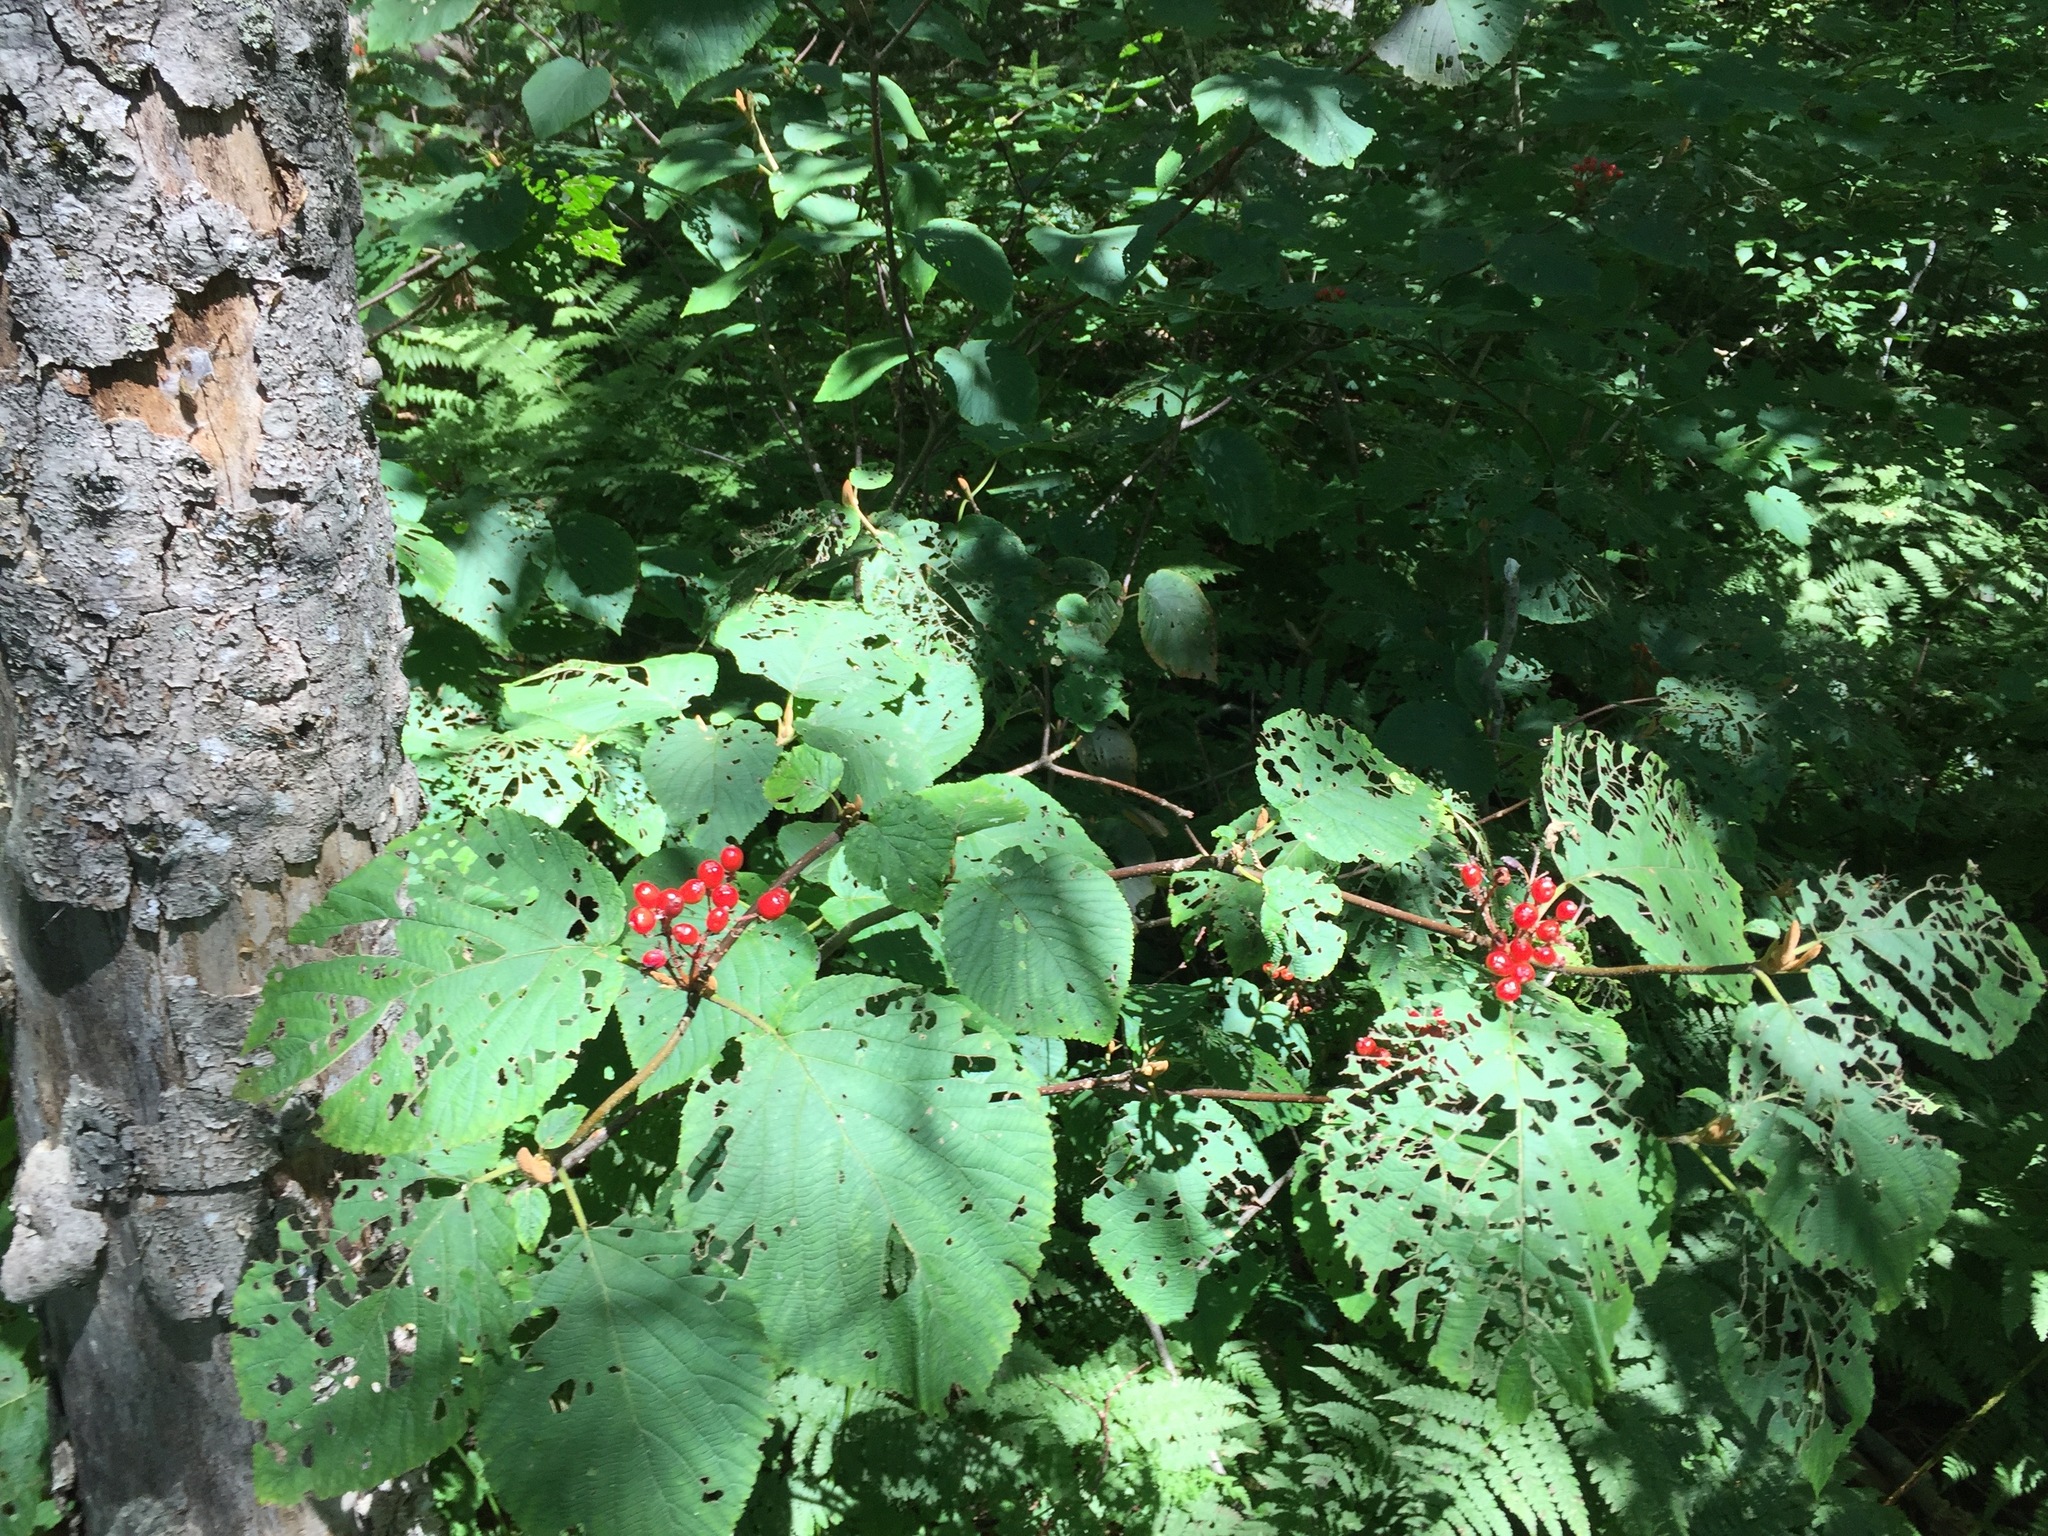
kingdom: Plantae
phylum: Tracheophyta
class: Magnoliopsida
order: Dipsacales
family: Viburnaceae
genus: Viburnum
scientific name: Viburnum lantanoides
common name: Hobblebush
